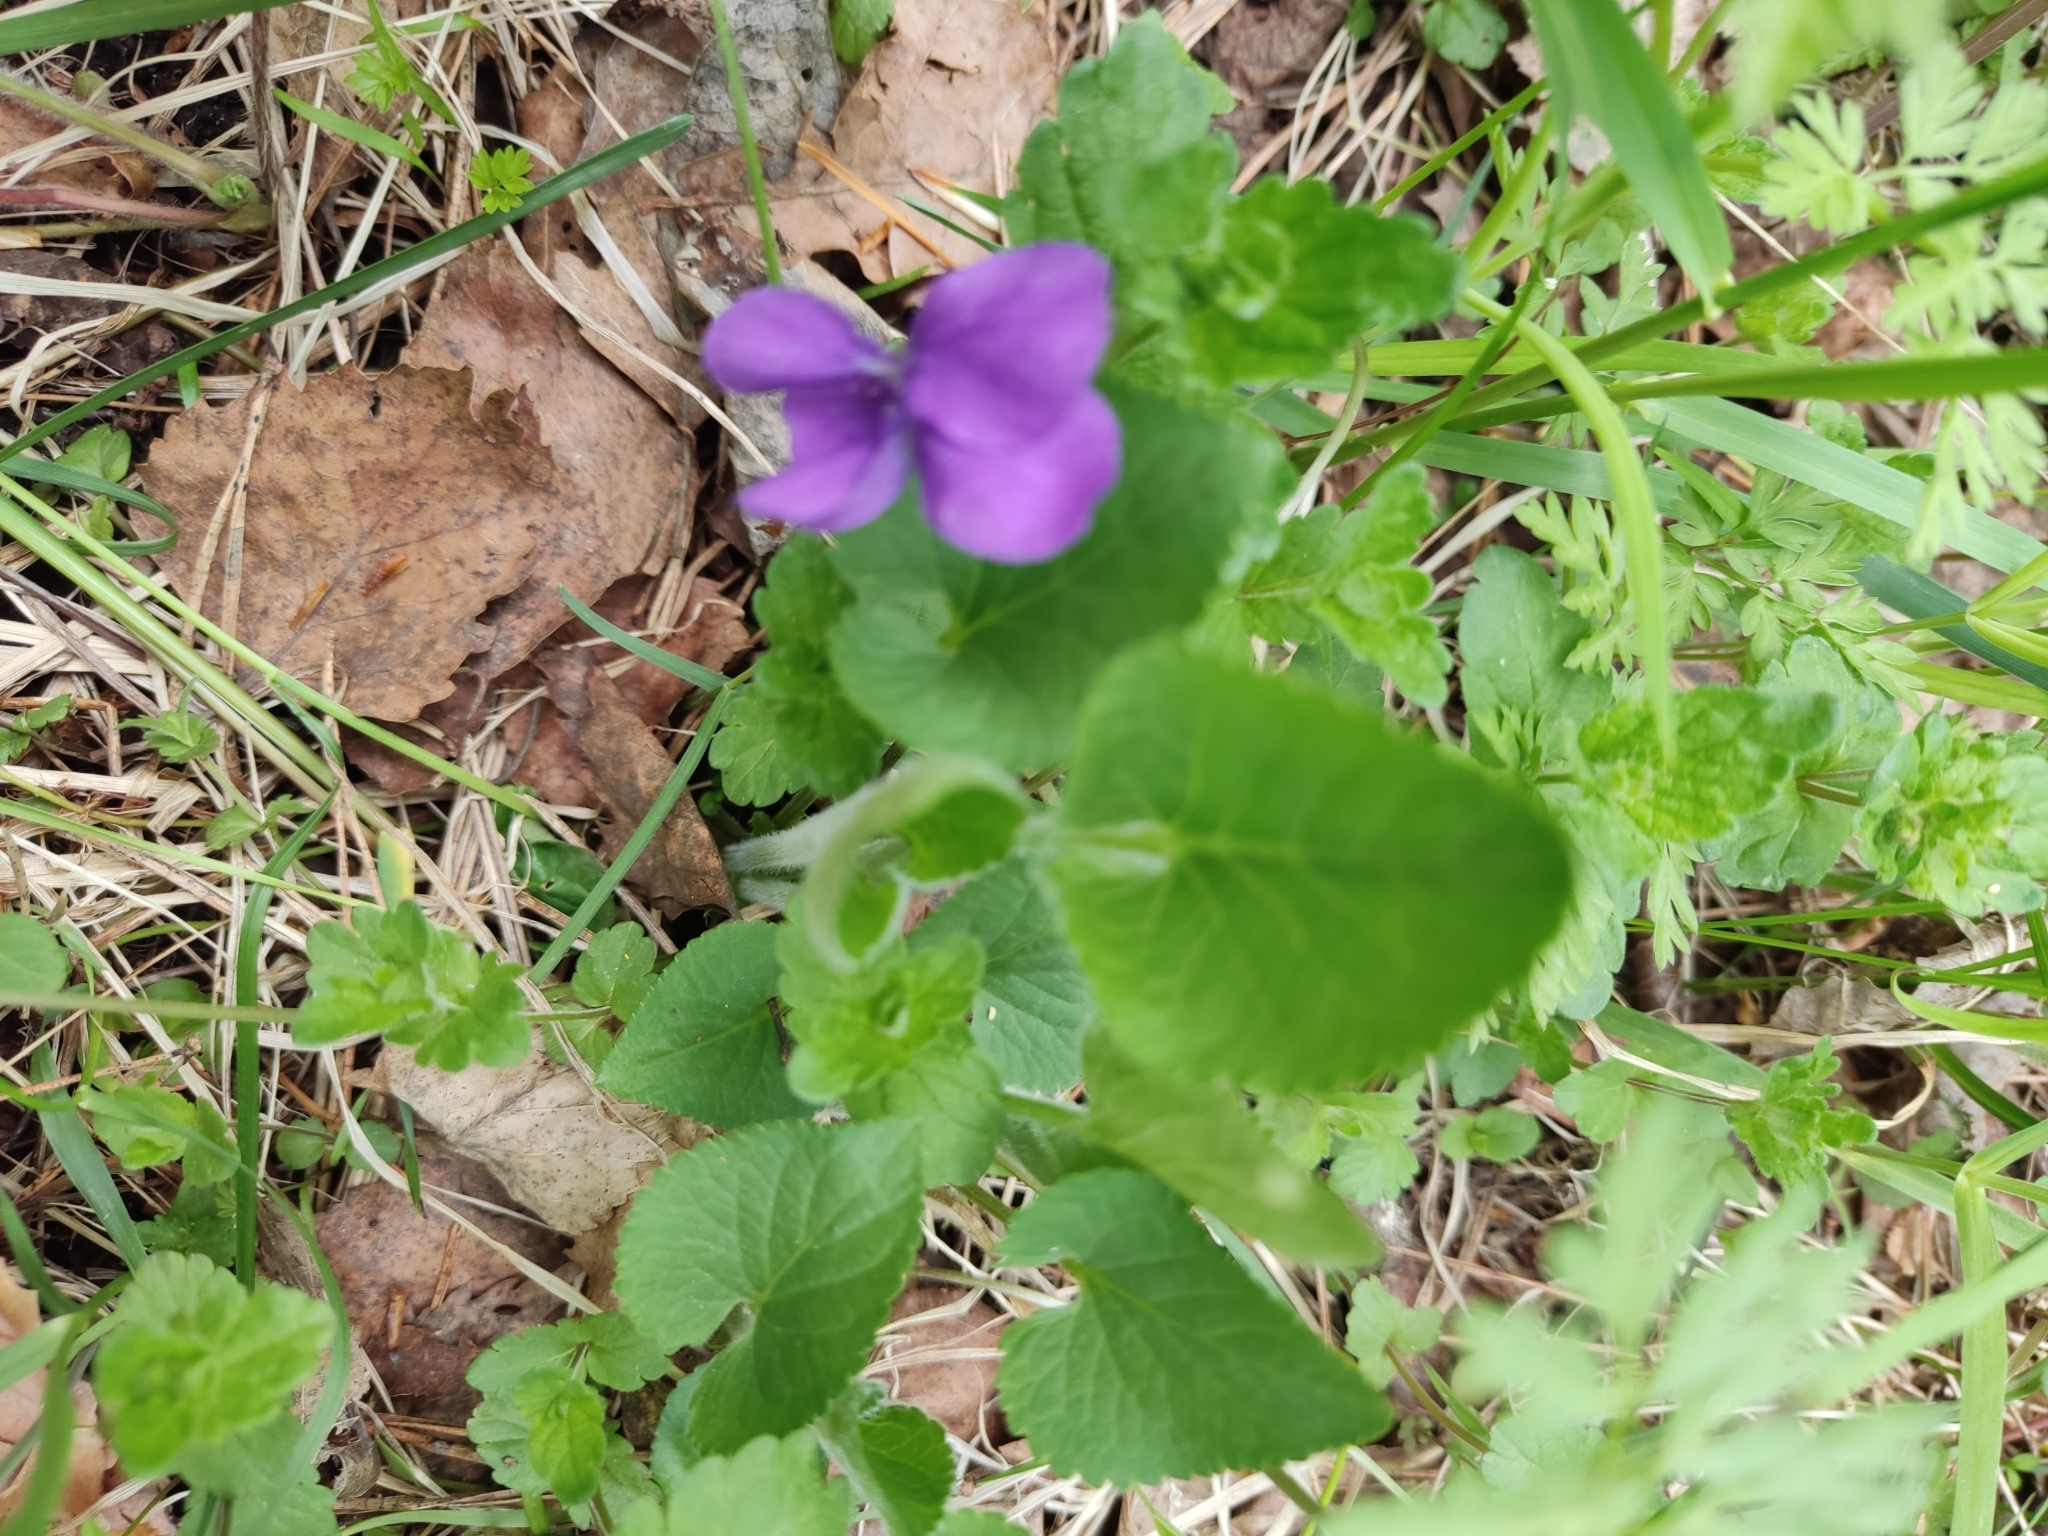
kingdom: Plantae
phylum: Tracheophyta
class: Magnoliopsida
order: Malpighiales
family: Violaceae
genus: Viola
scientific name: Viola hirta
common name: Hairy violet
